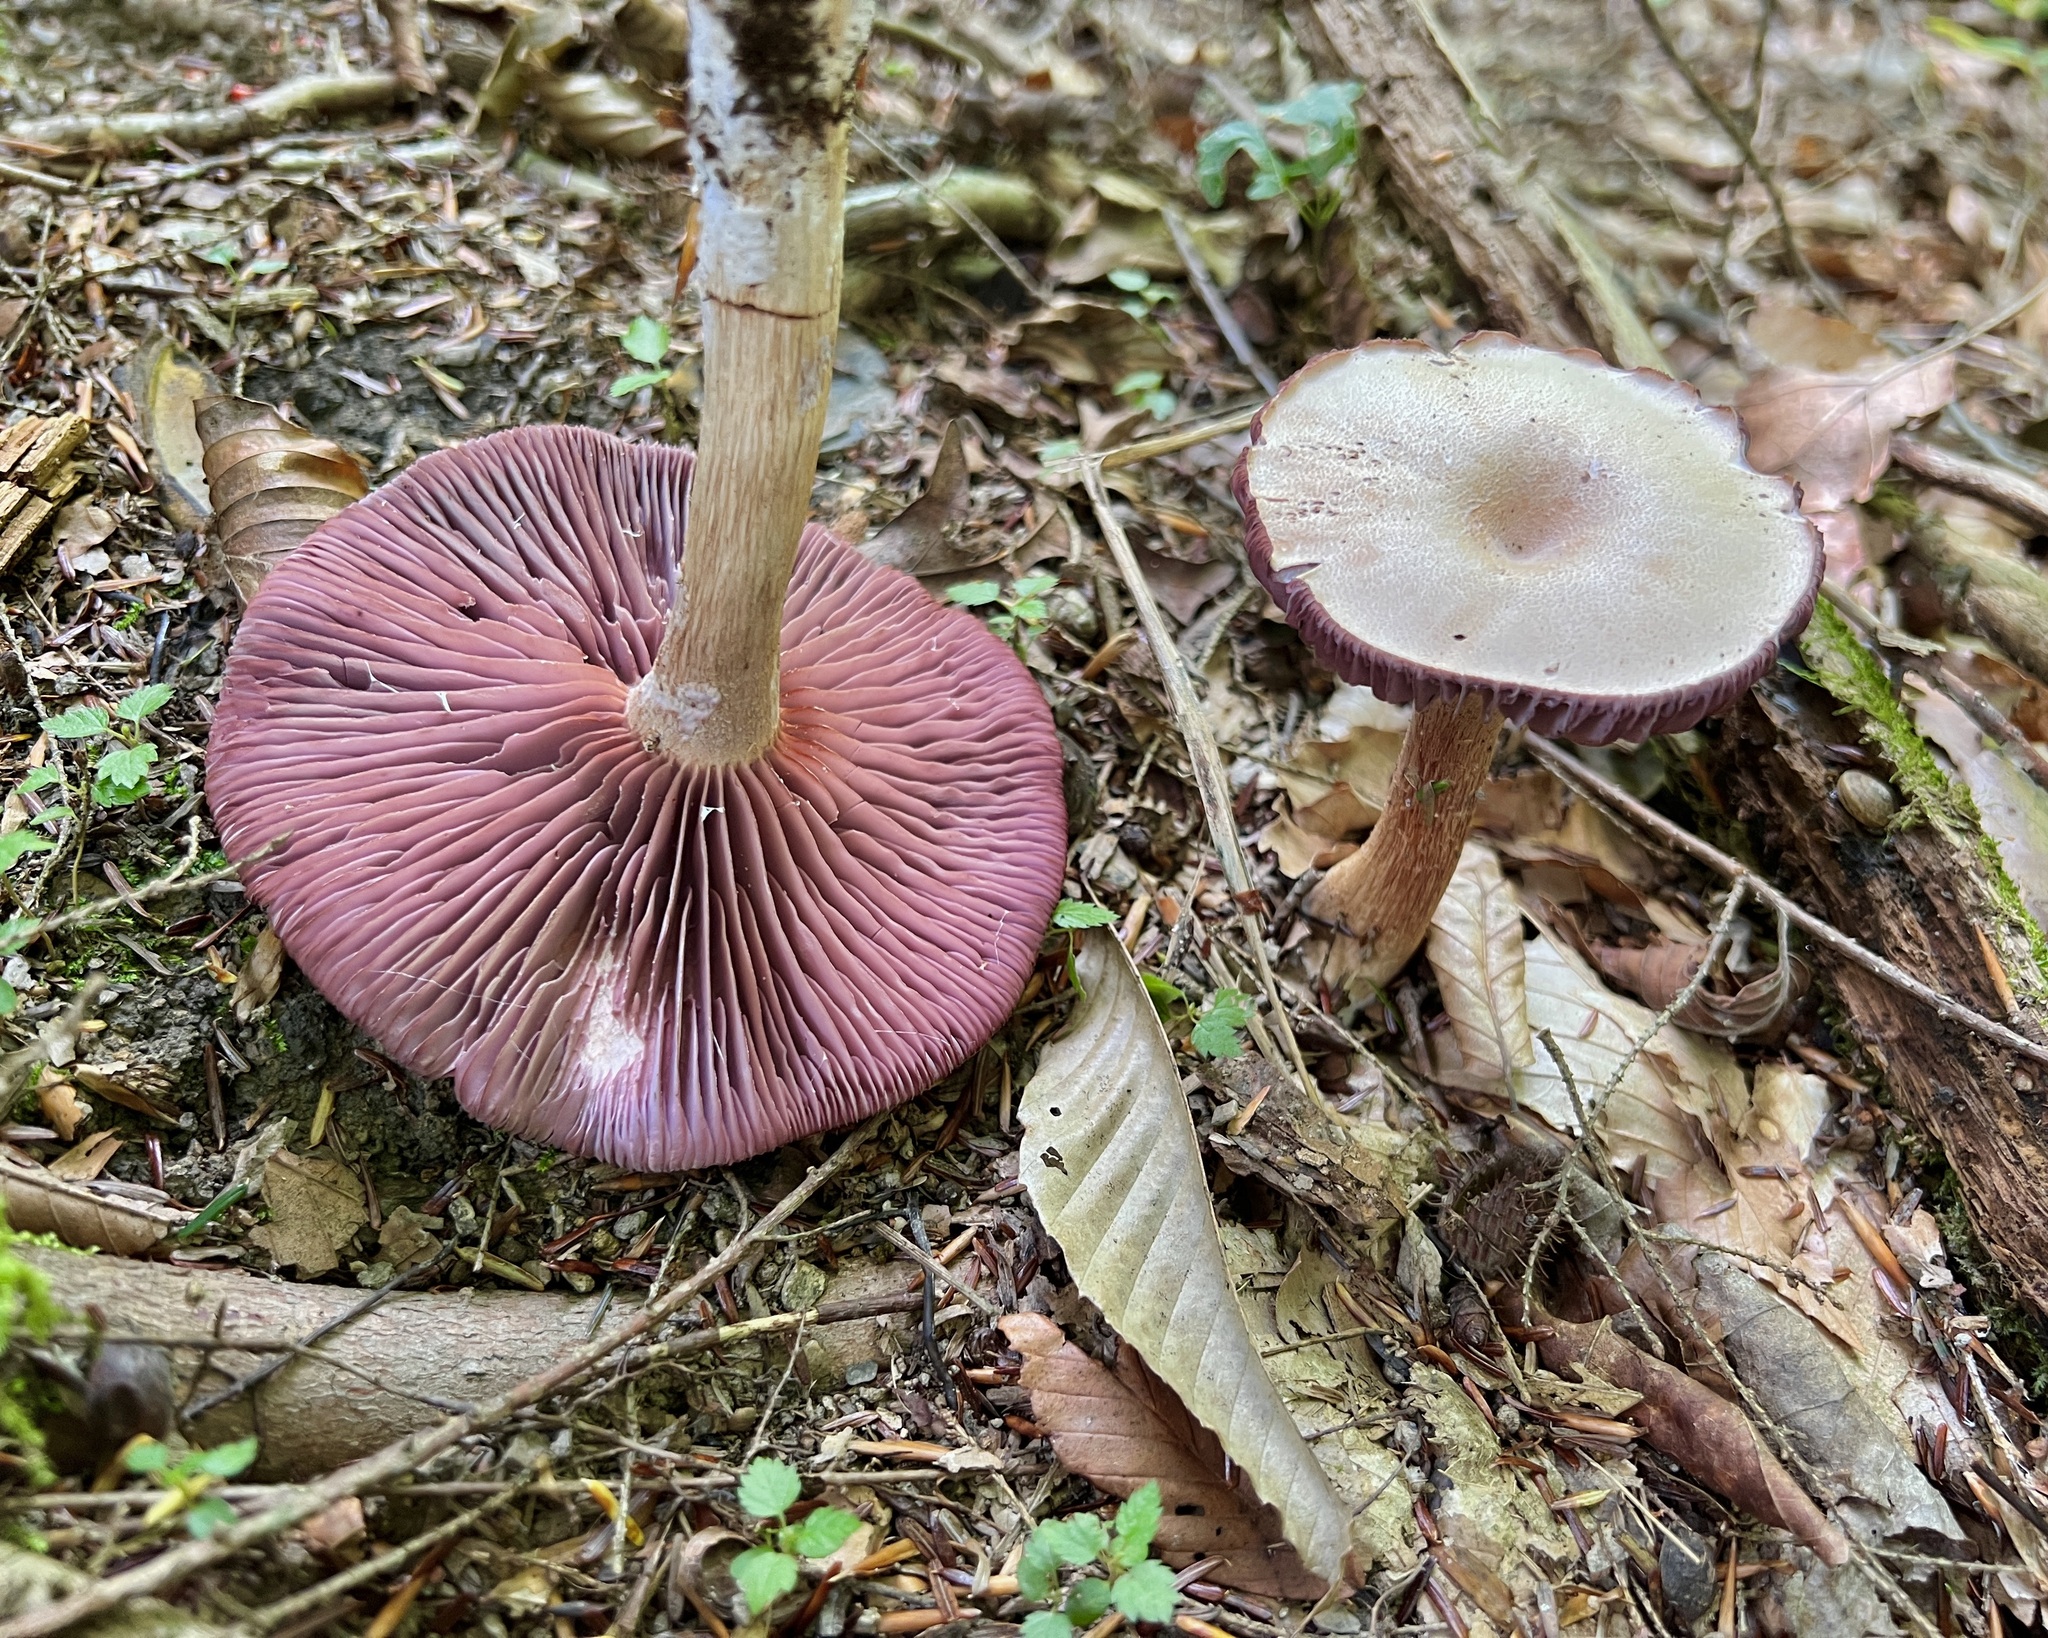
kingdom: Fungi
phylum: Basidiomycota
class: Agaricomycetes
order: Agaricales
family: Hydnangiaceae
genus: Laccaria
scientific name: Laccaria ochropurpurea
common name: Purple laccaria
